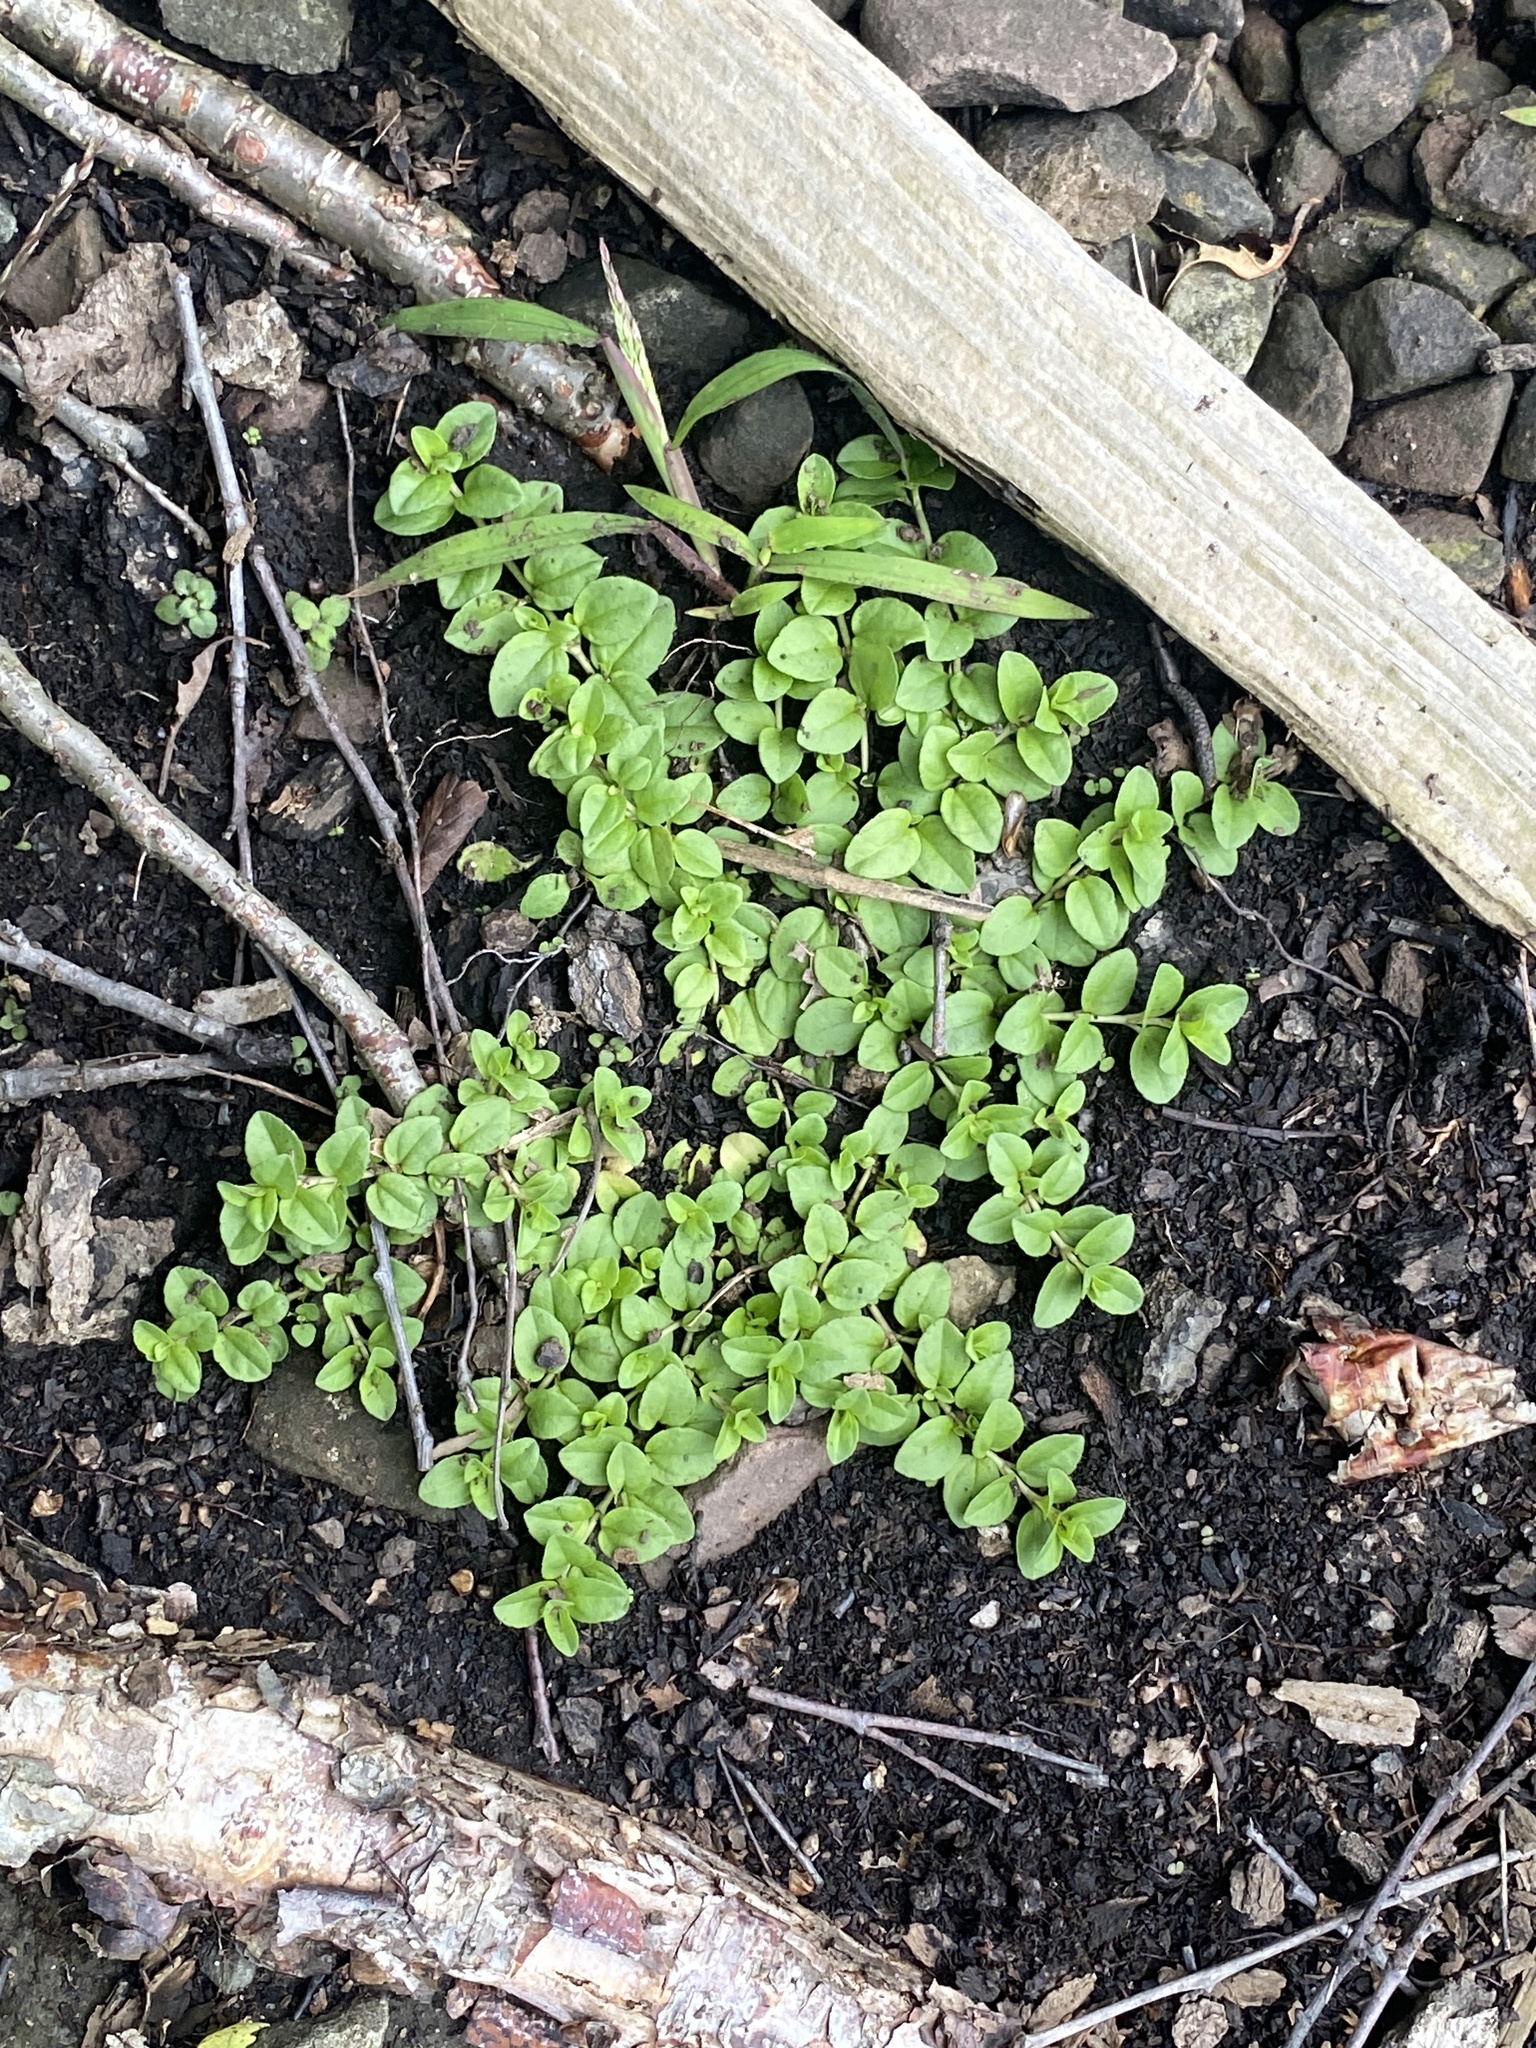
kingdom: Plantae
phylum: Tracheophyta
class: Magnoliopsida
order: Lamiales
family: Plantaginaceae
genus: Veronica
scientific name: Veronica serpyllifolia
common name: Thyme-leaved speedwell
